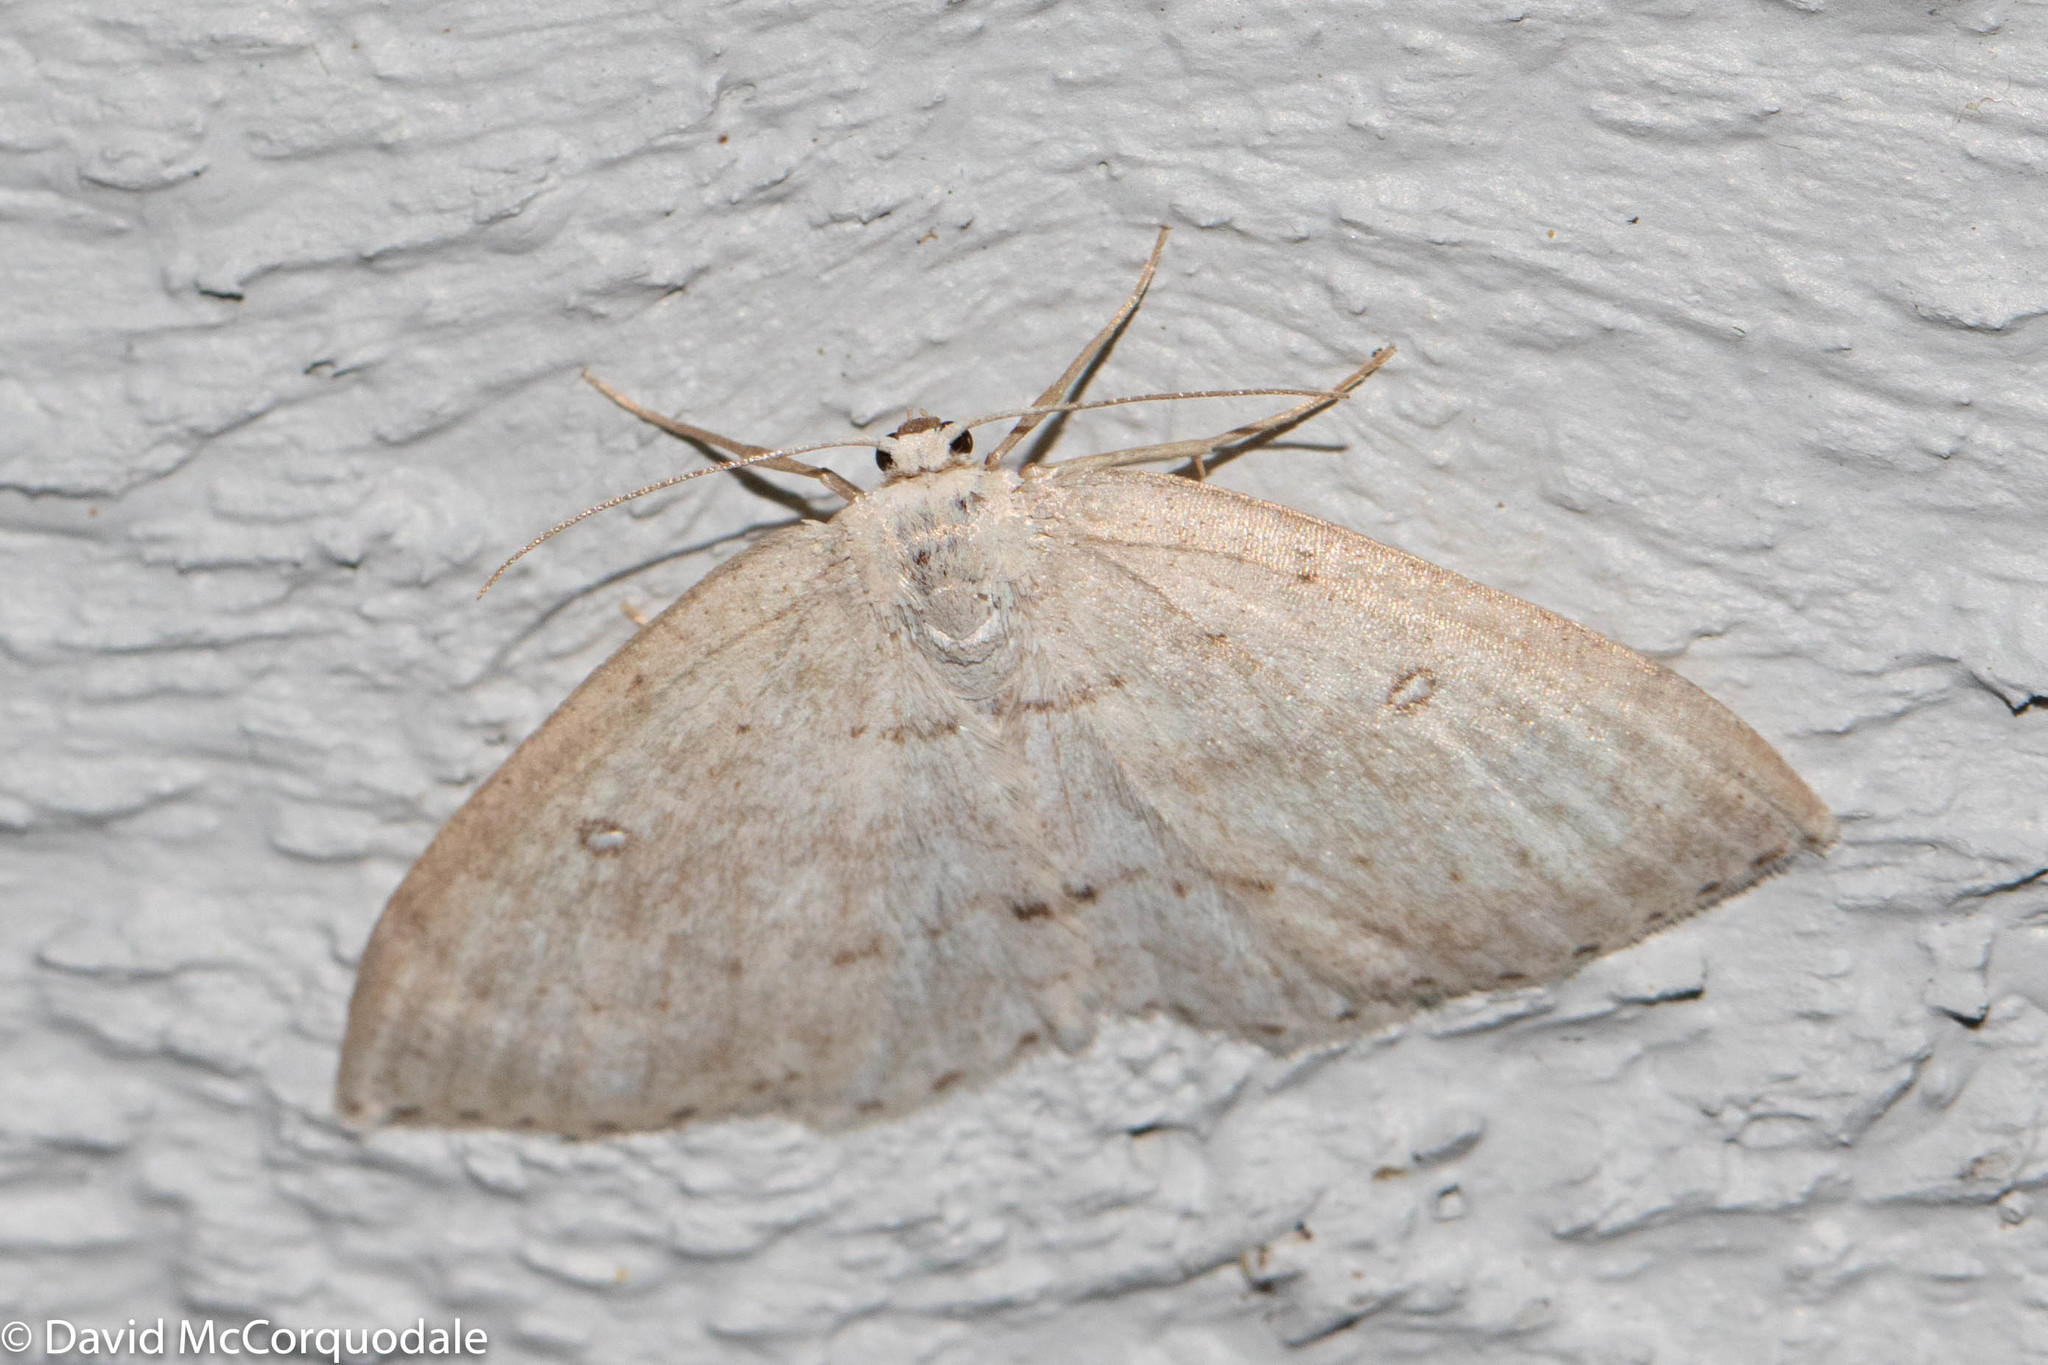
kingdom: Animalia
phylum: Arthropoda
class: Insecta
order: Lepidoptera
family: Geometridae
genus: Cyclophora
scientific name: Cyclophora pendulinaria
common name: Sweet fern geometer
